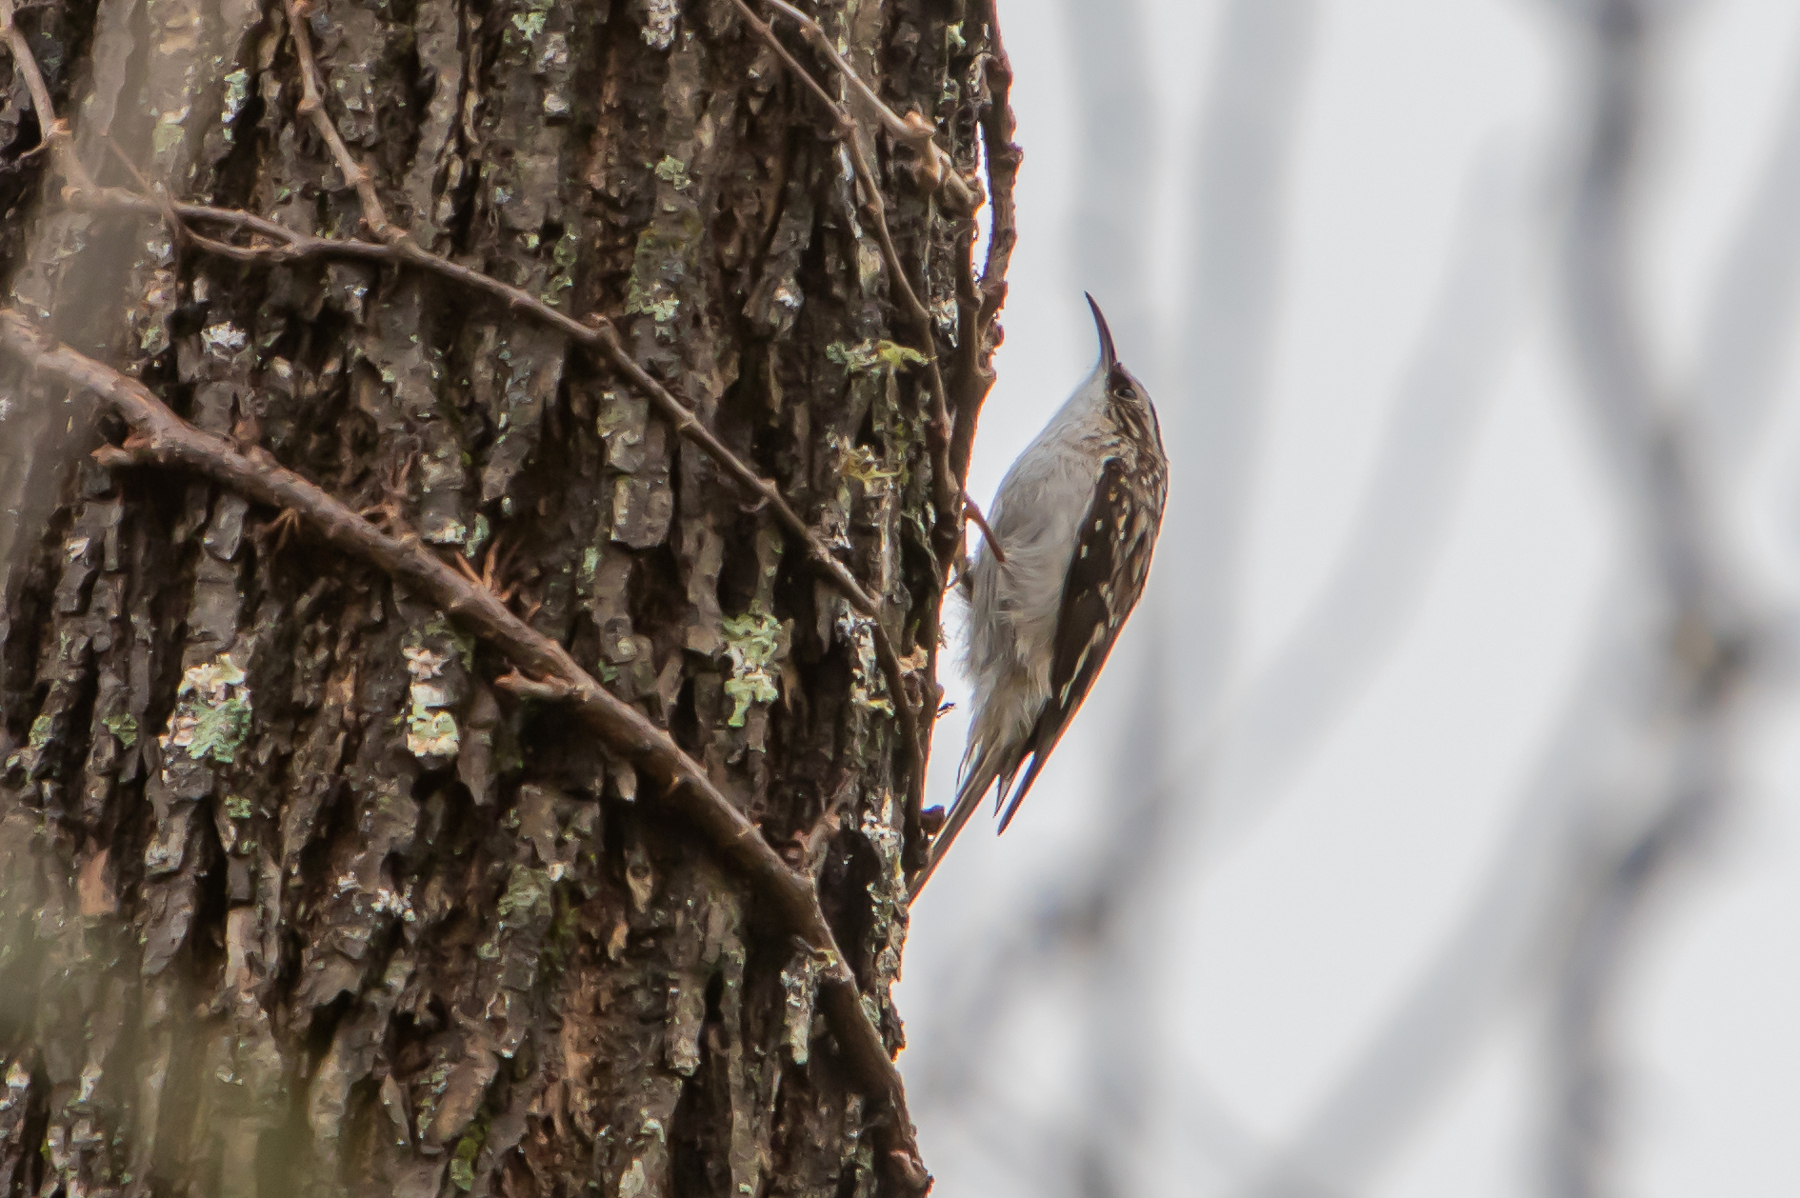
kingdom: Animalia
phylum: Chordata
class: Aves
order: Passeriformes
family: Certhiidae
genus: Certhia
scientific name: Certhia americana
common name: Brown creeper
